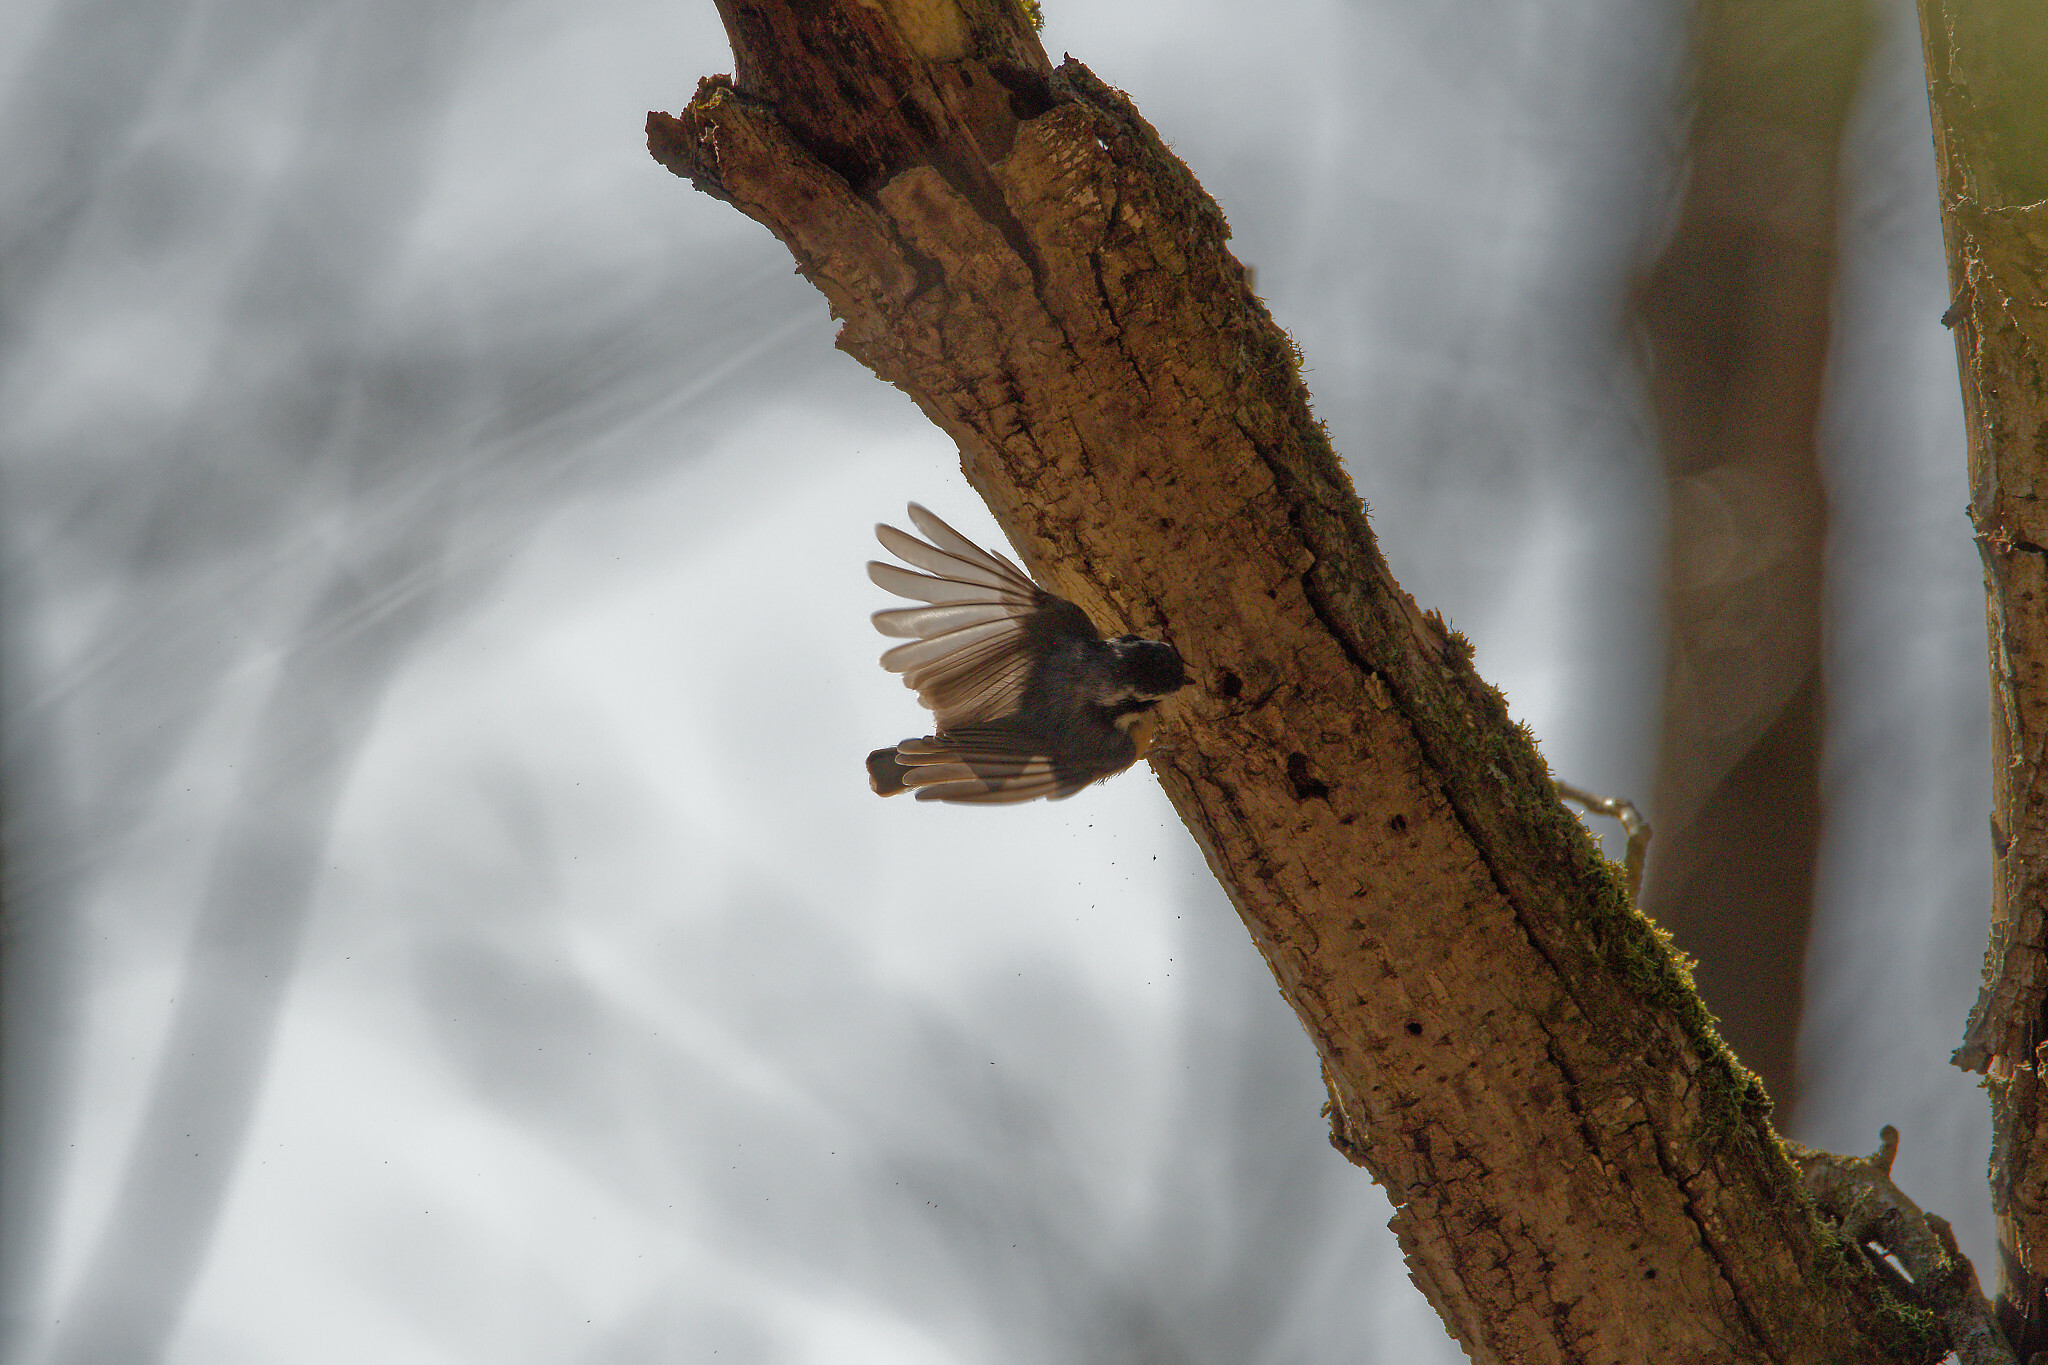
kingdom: Animalia
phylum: Chordata
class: Aves
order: Passeriformes
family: Sittidae
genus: Sitta
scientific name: Sitta canadensis
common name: Red-breasted nuthatch
